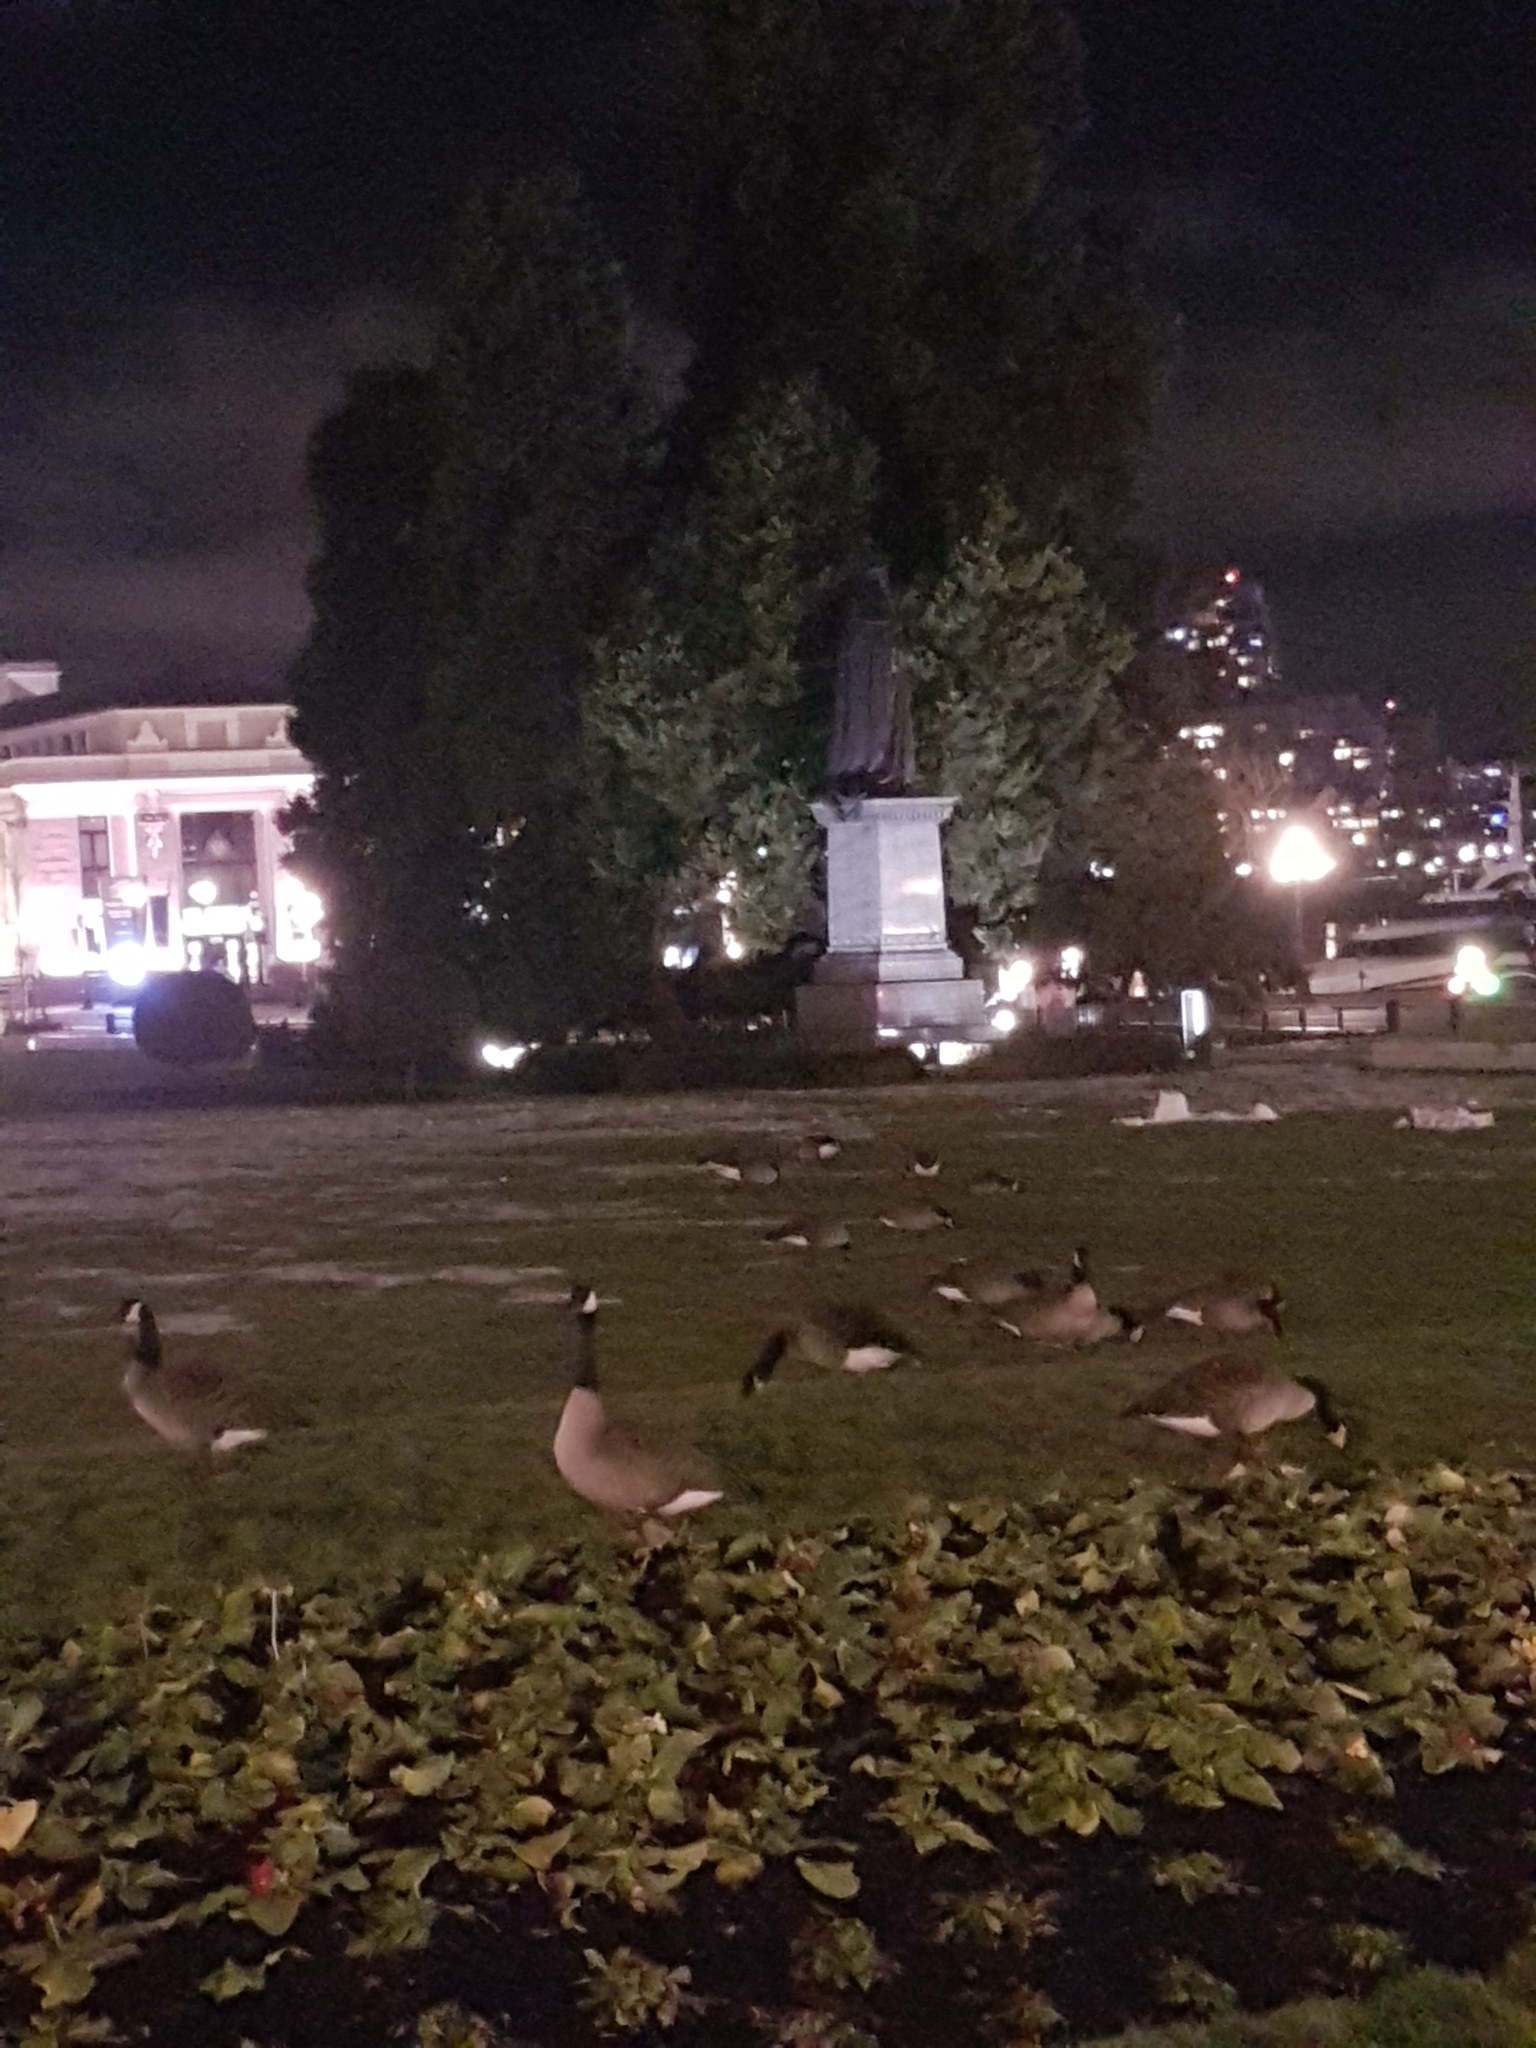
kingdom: Animalia
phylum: Chordata
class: Aves
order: Anseriformes
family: Anatidae
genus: Branta
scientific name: Branta canadensis
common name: Canada goose
